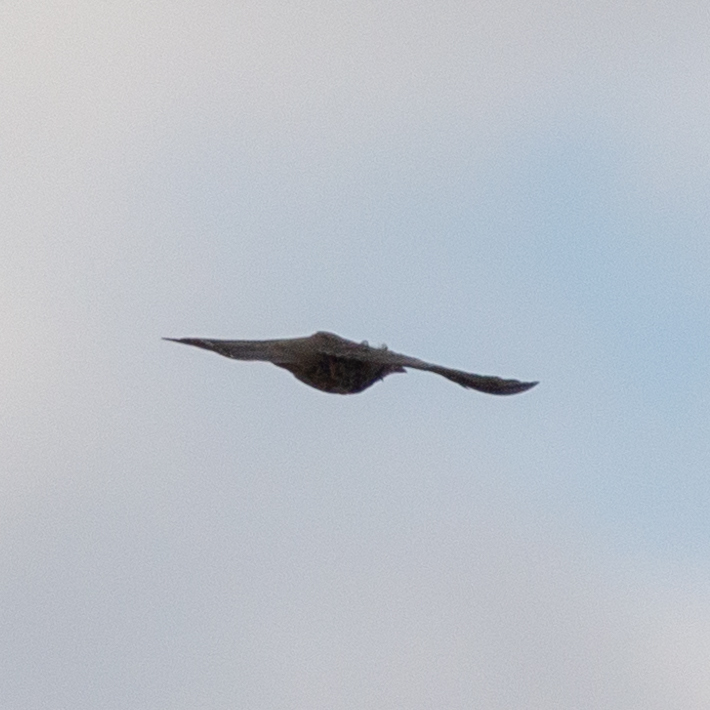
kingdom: Animalia
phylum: Chordata
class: Aves
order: Passeriformes
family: Turdidae
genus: Turdus
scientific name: Turdus viscivorus
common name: Mistle thrush
